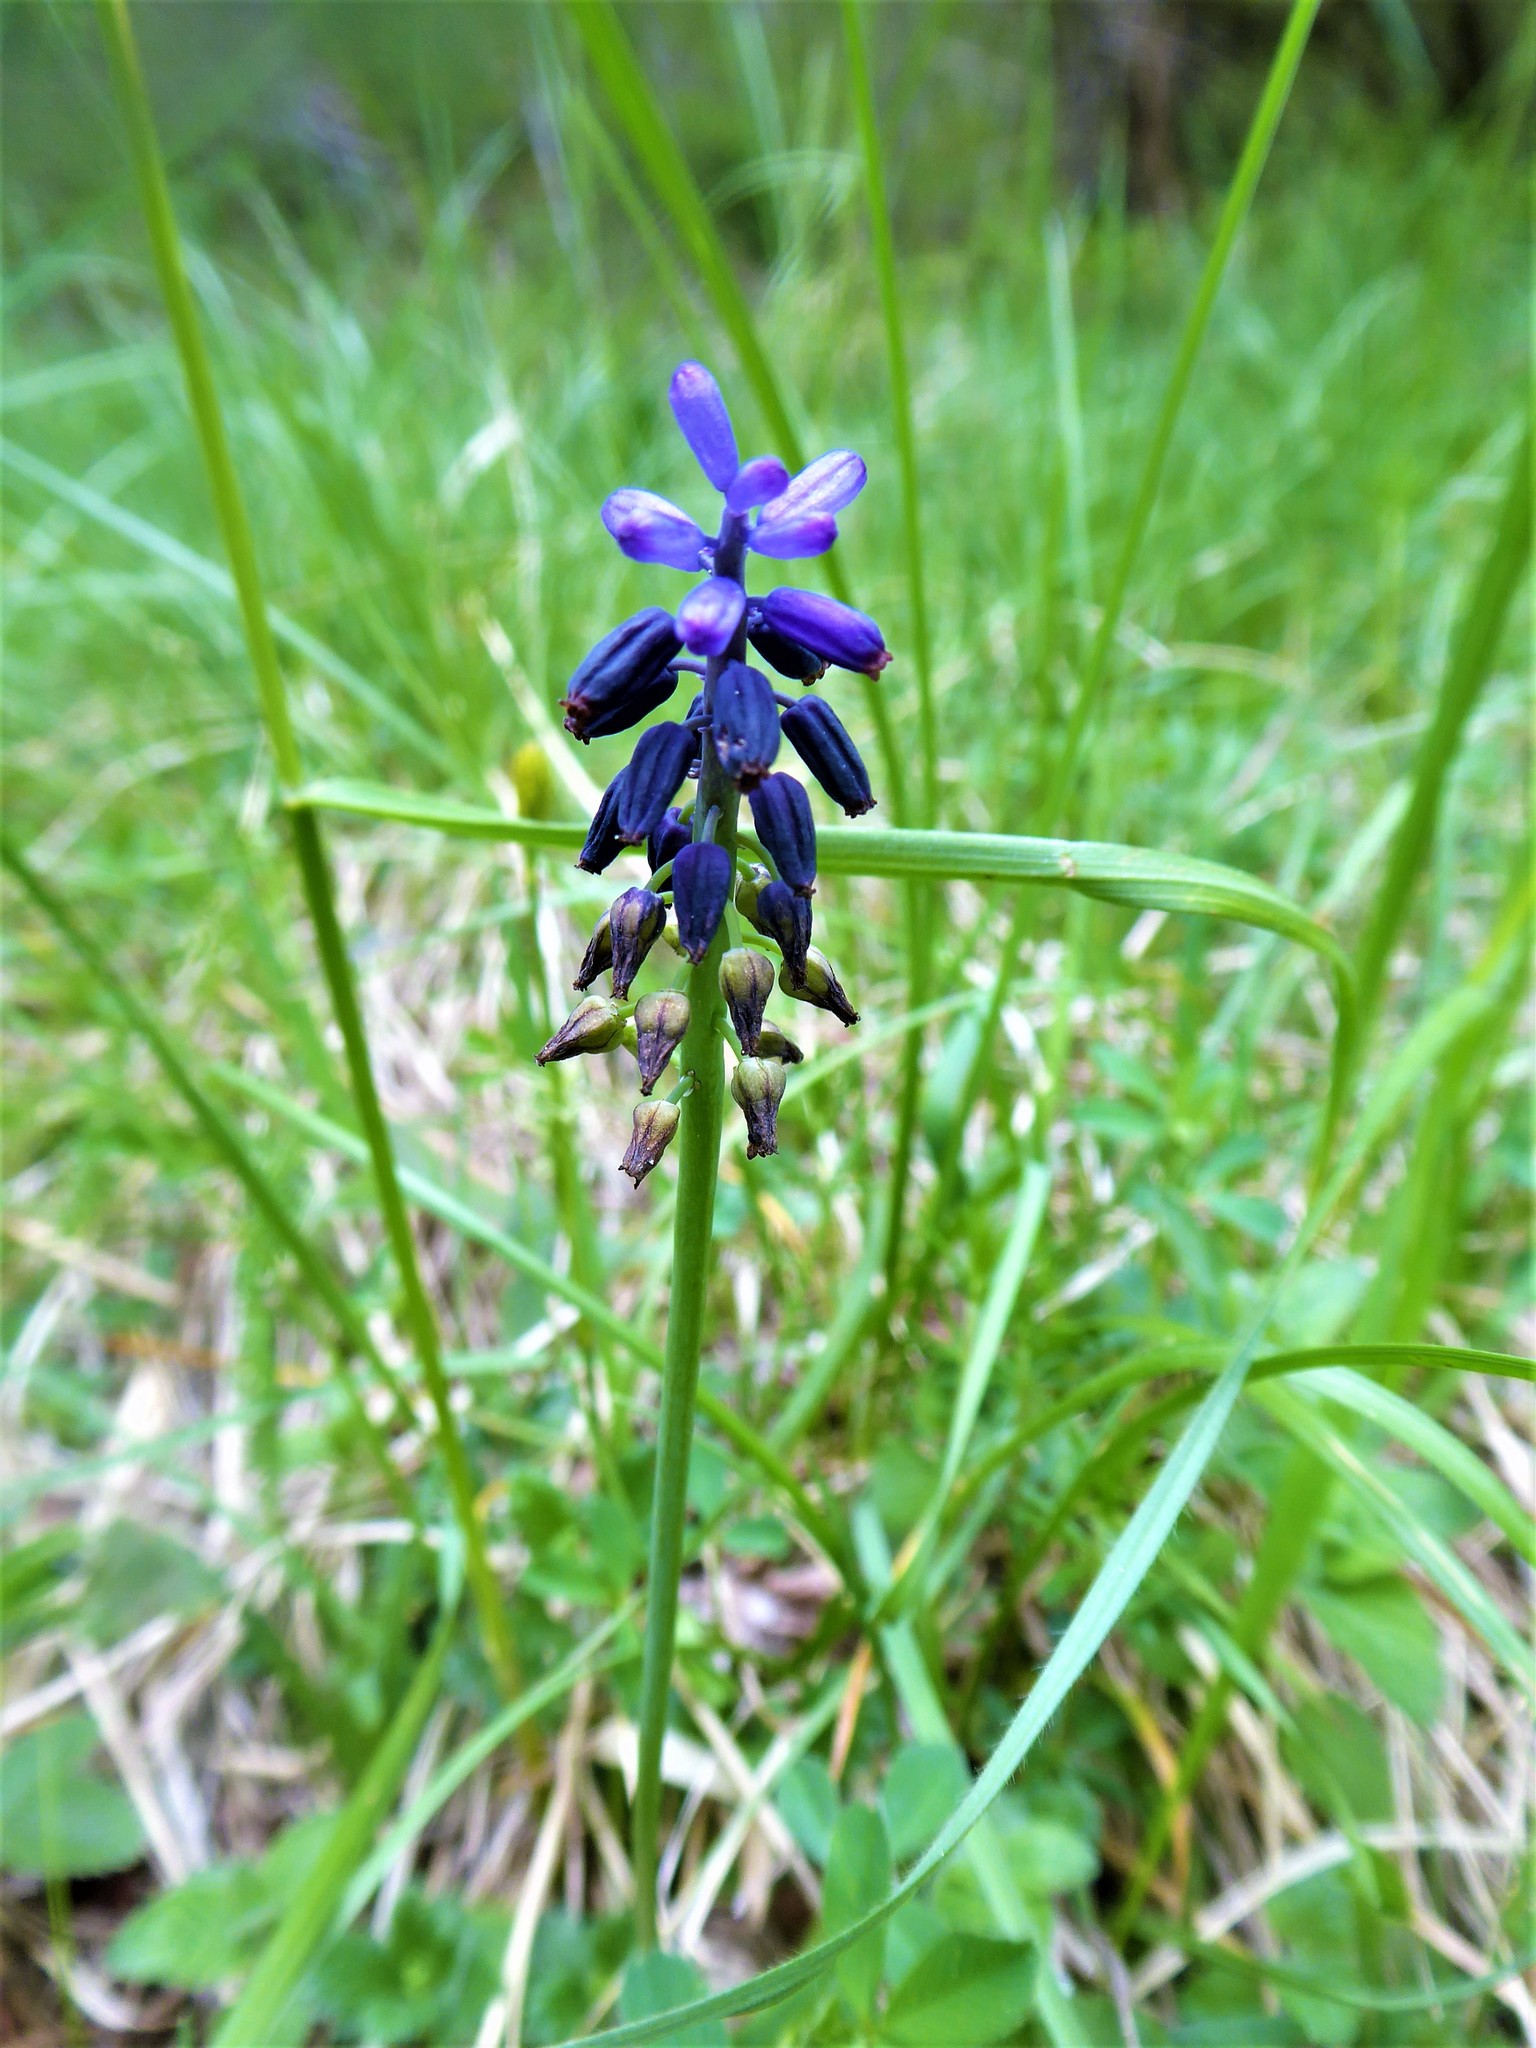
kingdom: Plantae
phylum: Tracheophyta
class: Liliopsida
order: Asparagales
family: Asparagaceae
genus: Muscari
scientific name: Muscari neglectum
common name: Grape-hyacinth
